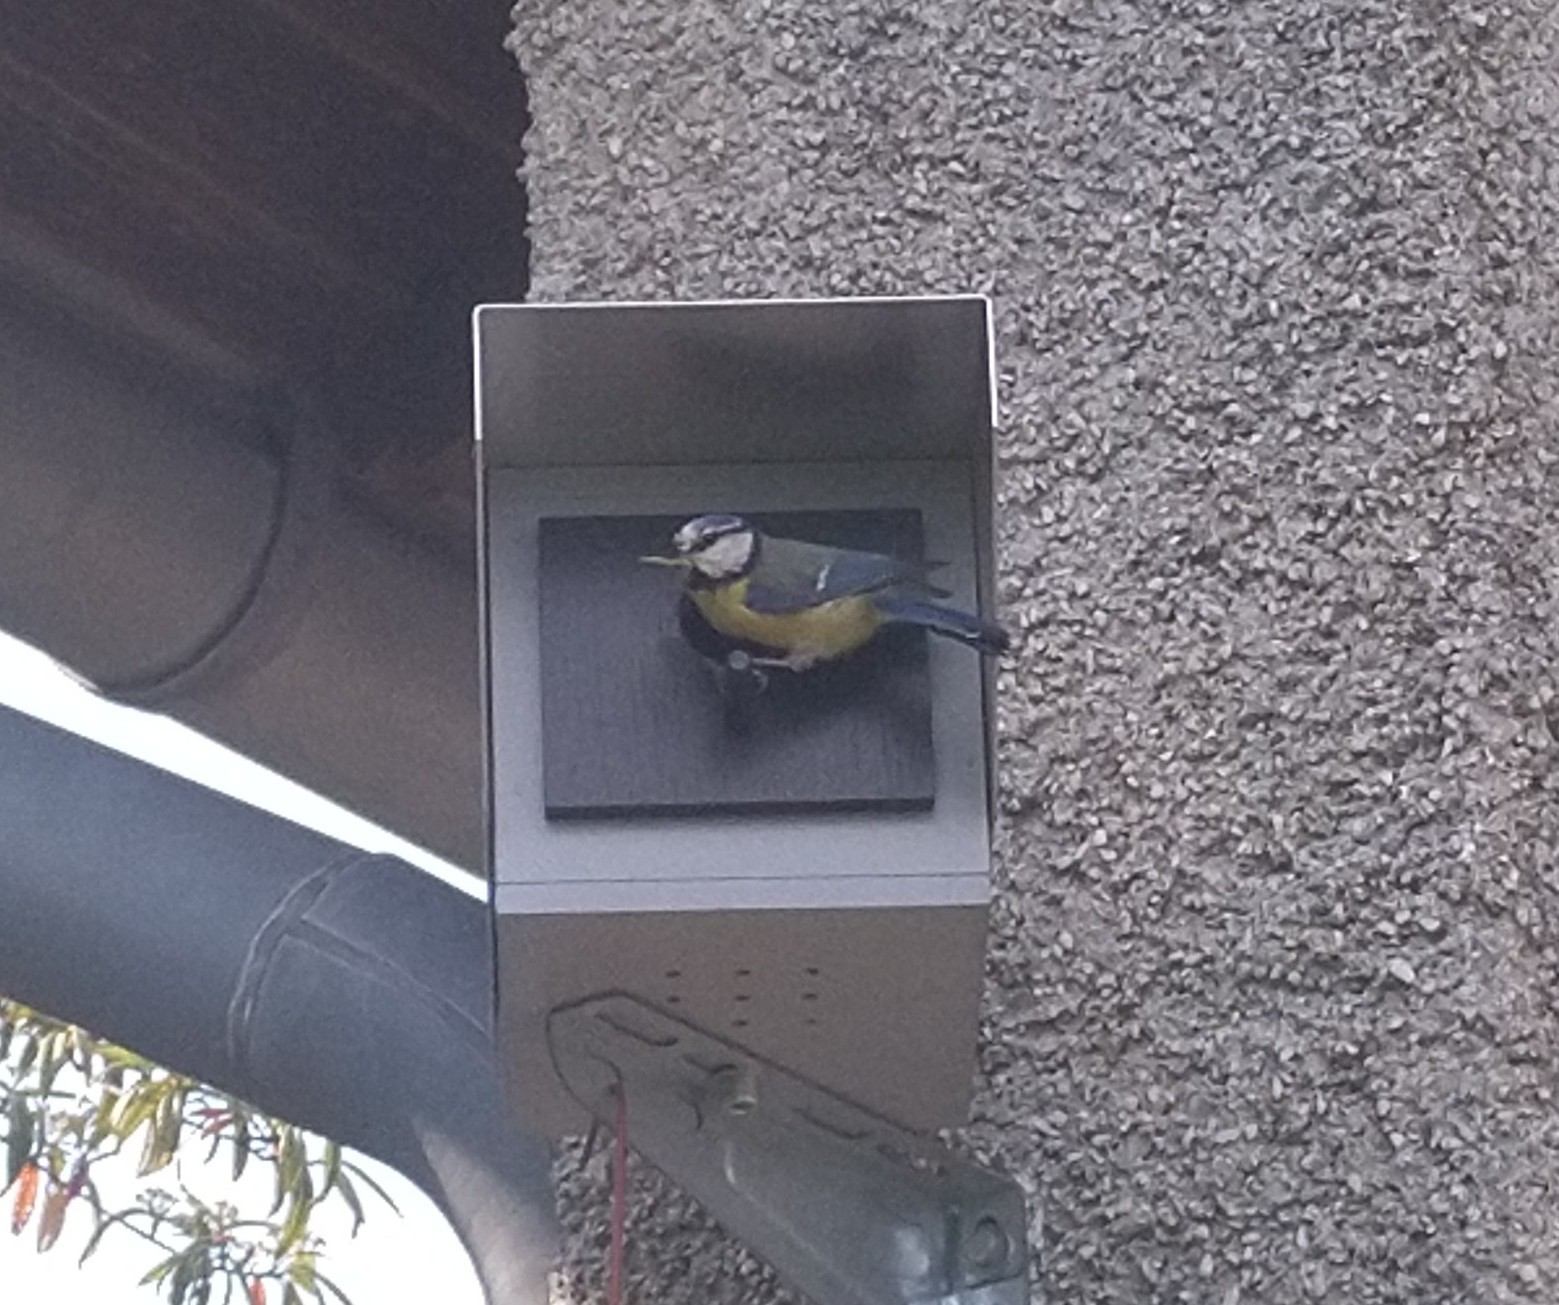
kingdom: Animalia
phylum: Chordata
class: Aves
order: Passeriformes
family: Paridae
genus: Cyanistes
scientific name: Cyanistes caeruleus
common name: Eurasian blue tit
